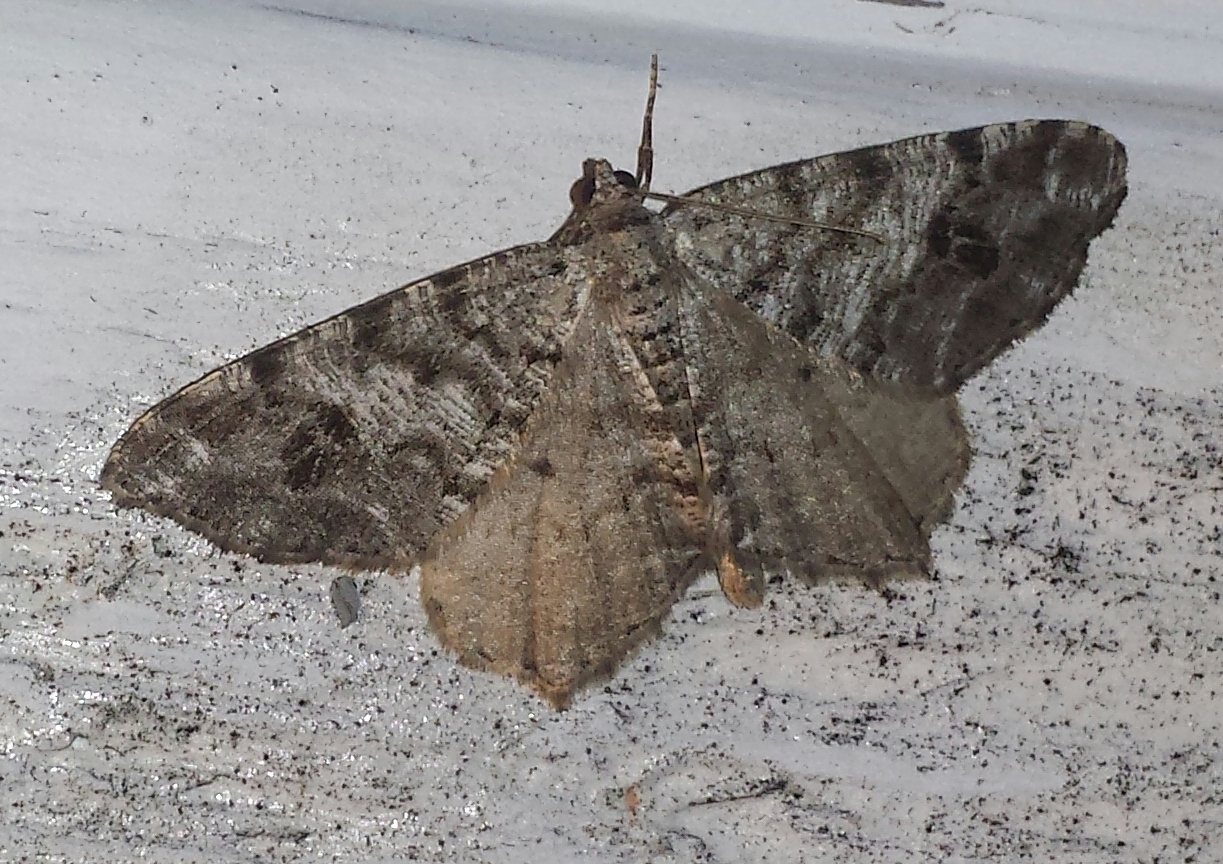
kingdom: Animalia
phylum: Arthropoda
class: Insecta
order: Lepidoptera
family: Geometridae
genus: Macaria
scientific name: Macaria pinistrobata
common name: White pine angle
